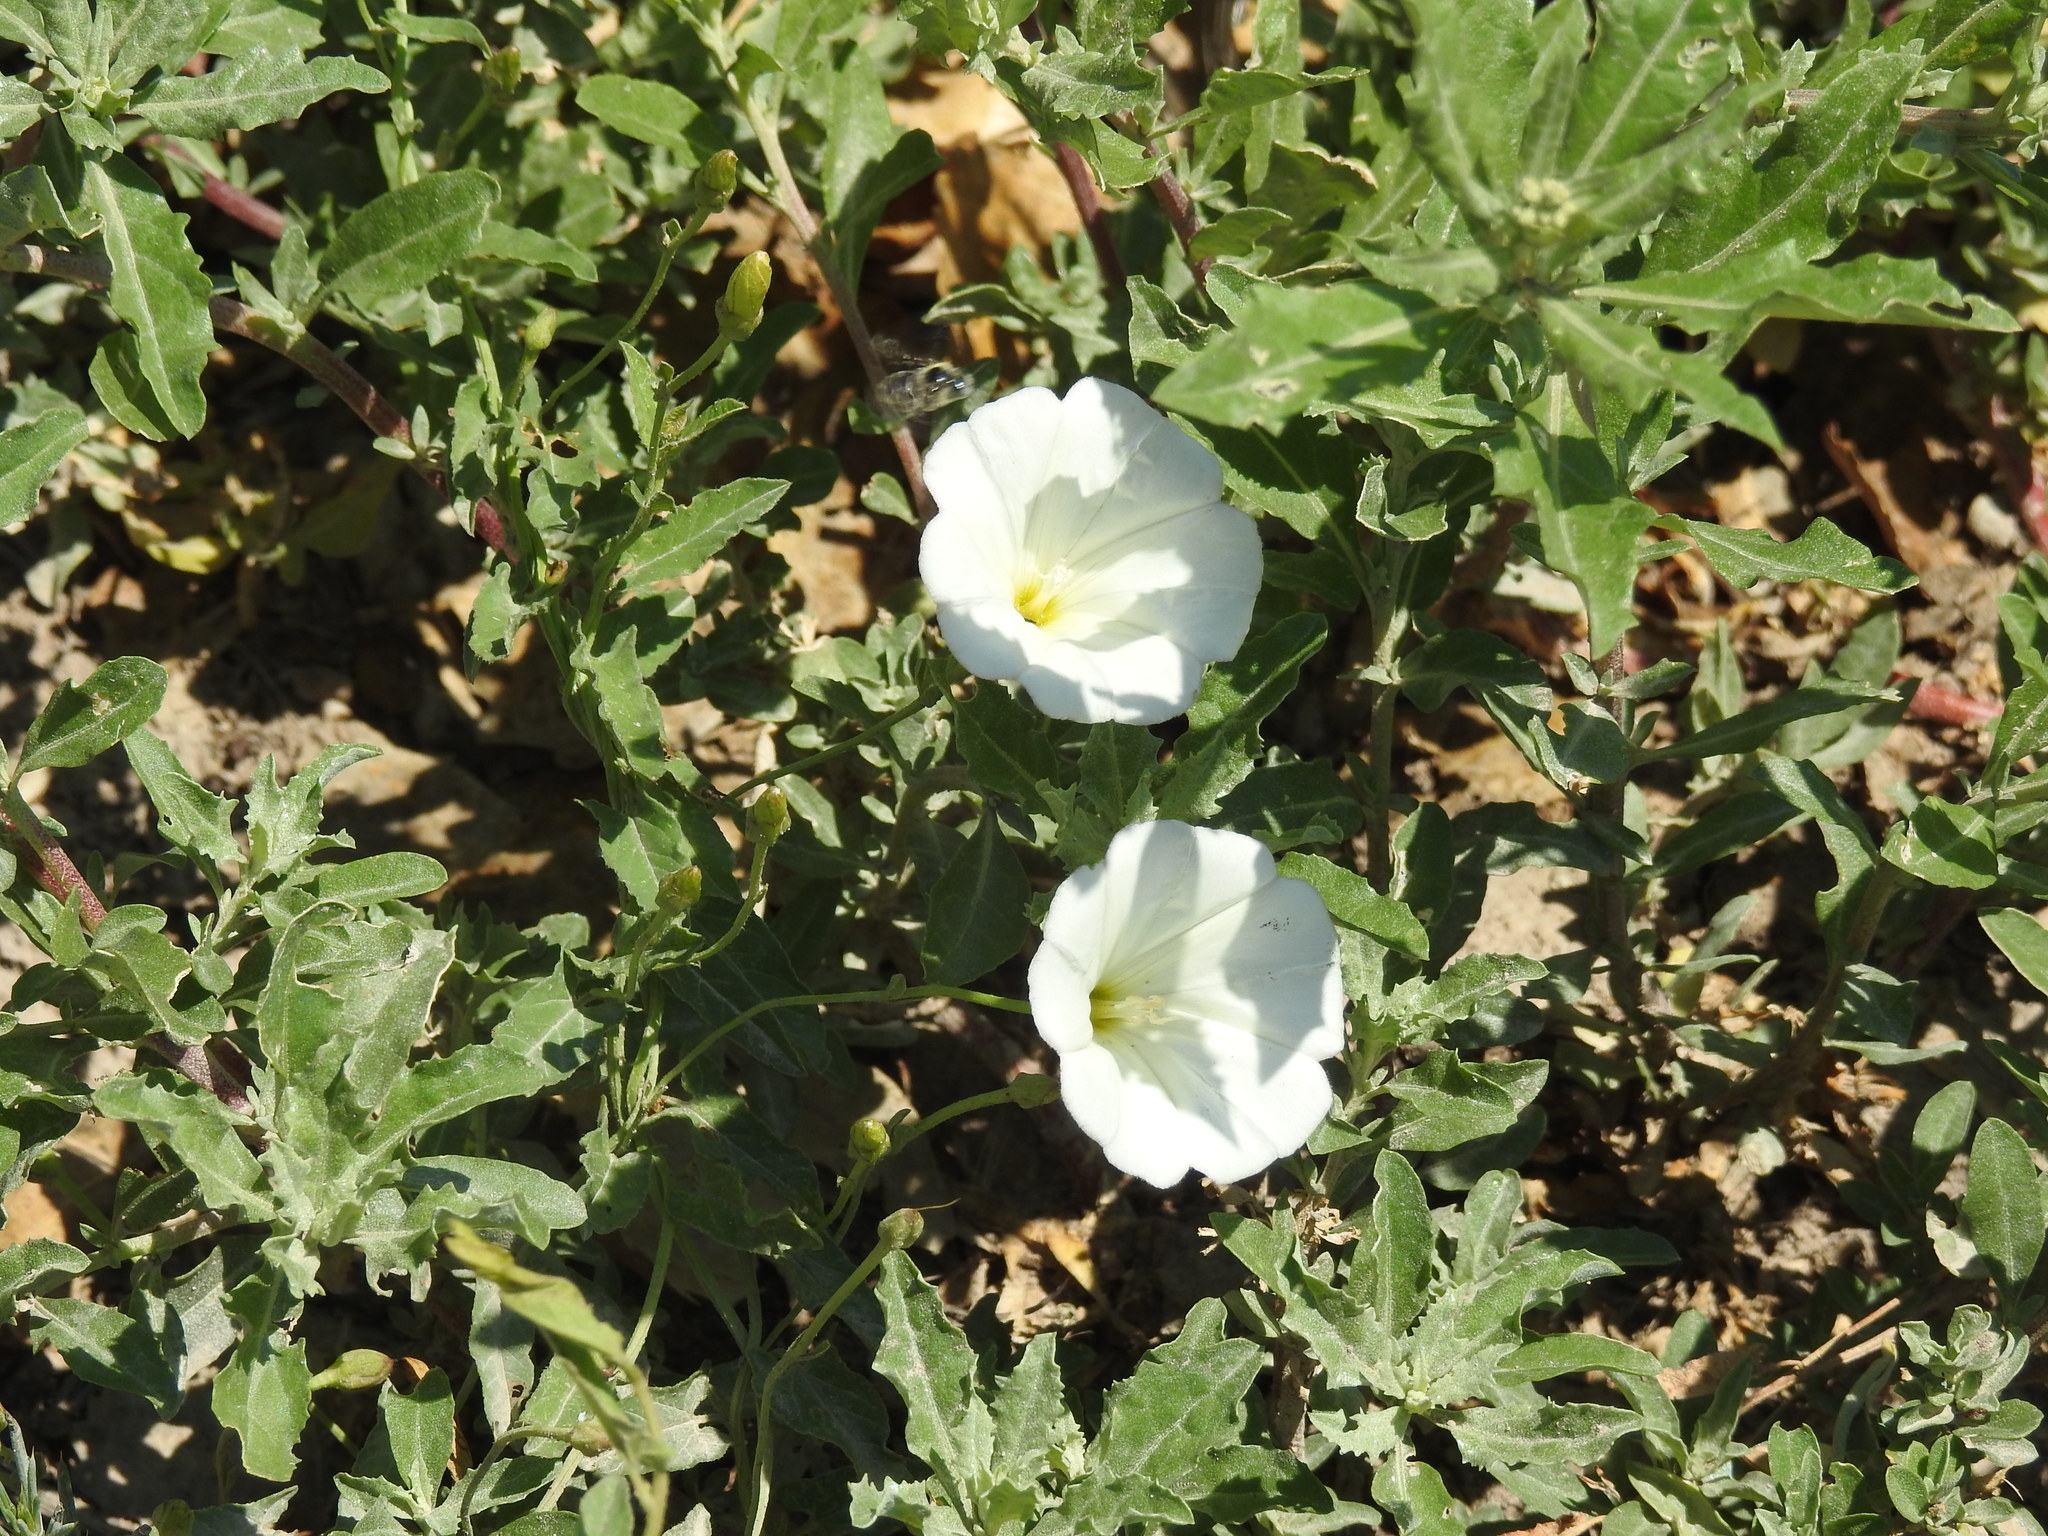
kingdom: Plantae
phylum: Tracheophyta
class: Magnoliopsida
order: Solanales
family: Convolvulaceae
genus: Convolvulus
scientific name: Convolvulus arvensis
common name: Field bindweed
